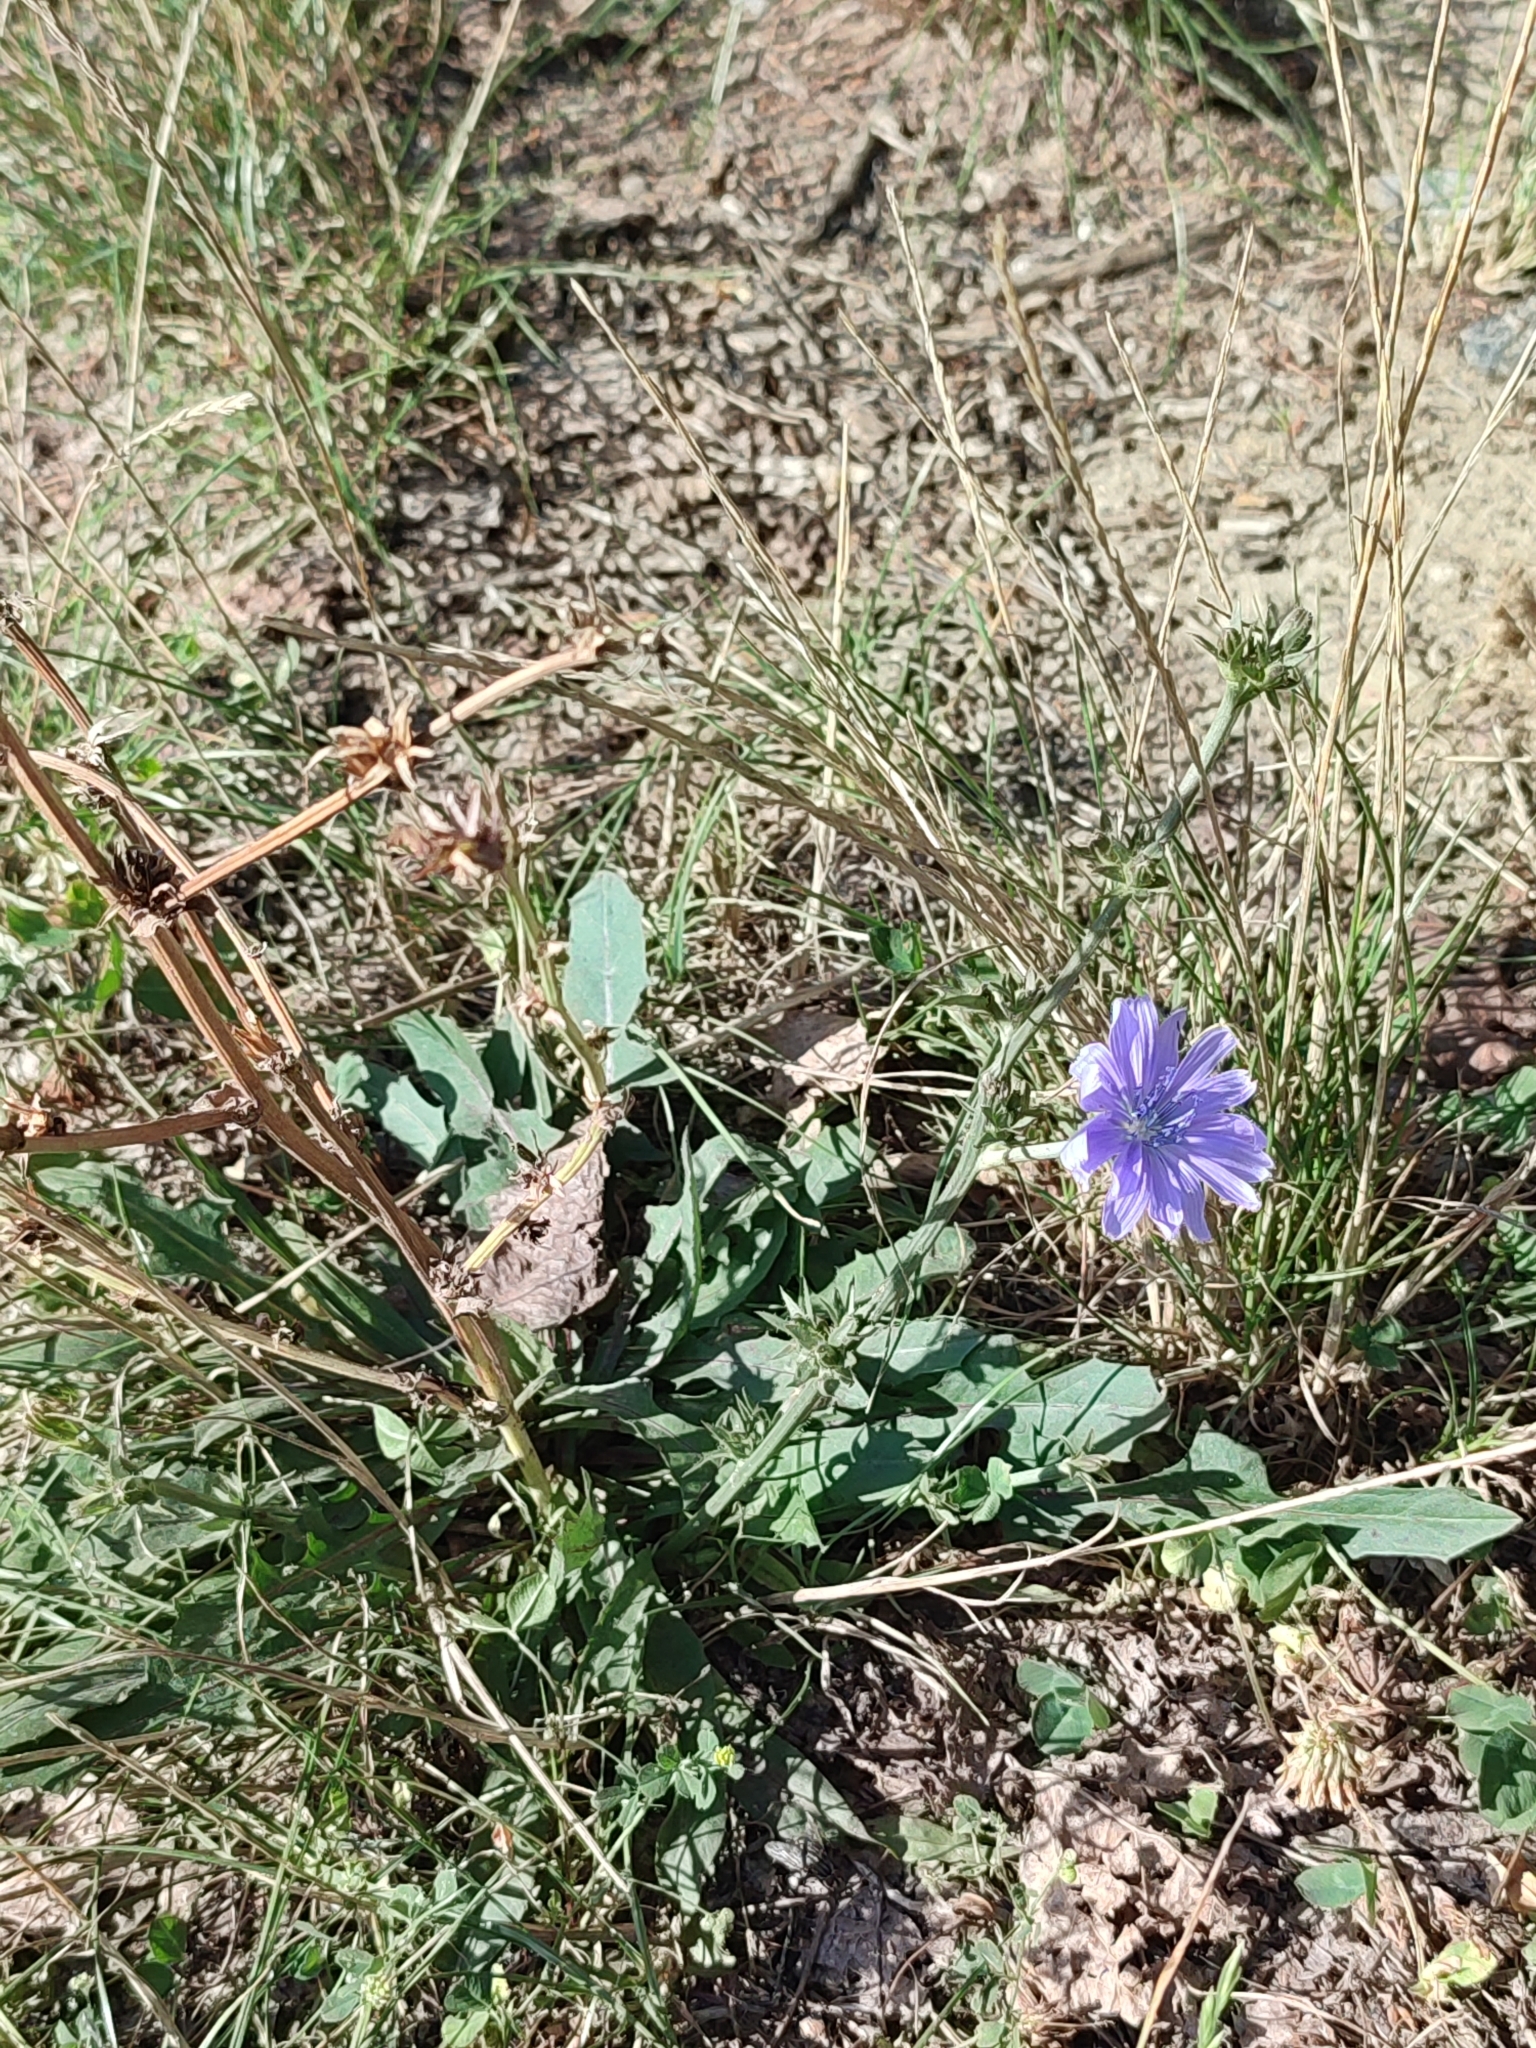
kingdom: Plantae
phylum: Tracheophyta
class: Magnoliopsida
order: Asterales
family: Asteraceae
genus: Cichorium
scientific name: Cichorium intybus
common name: Chicory
